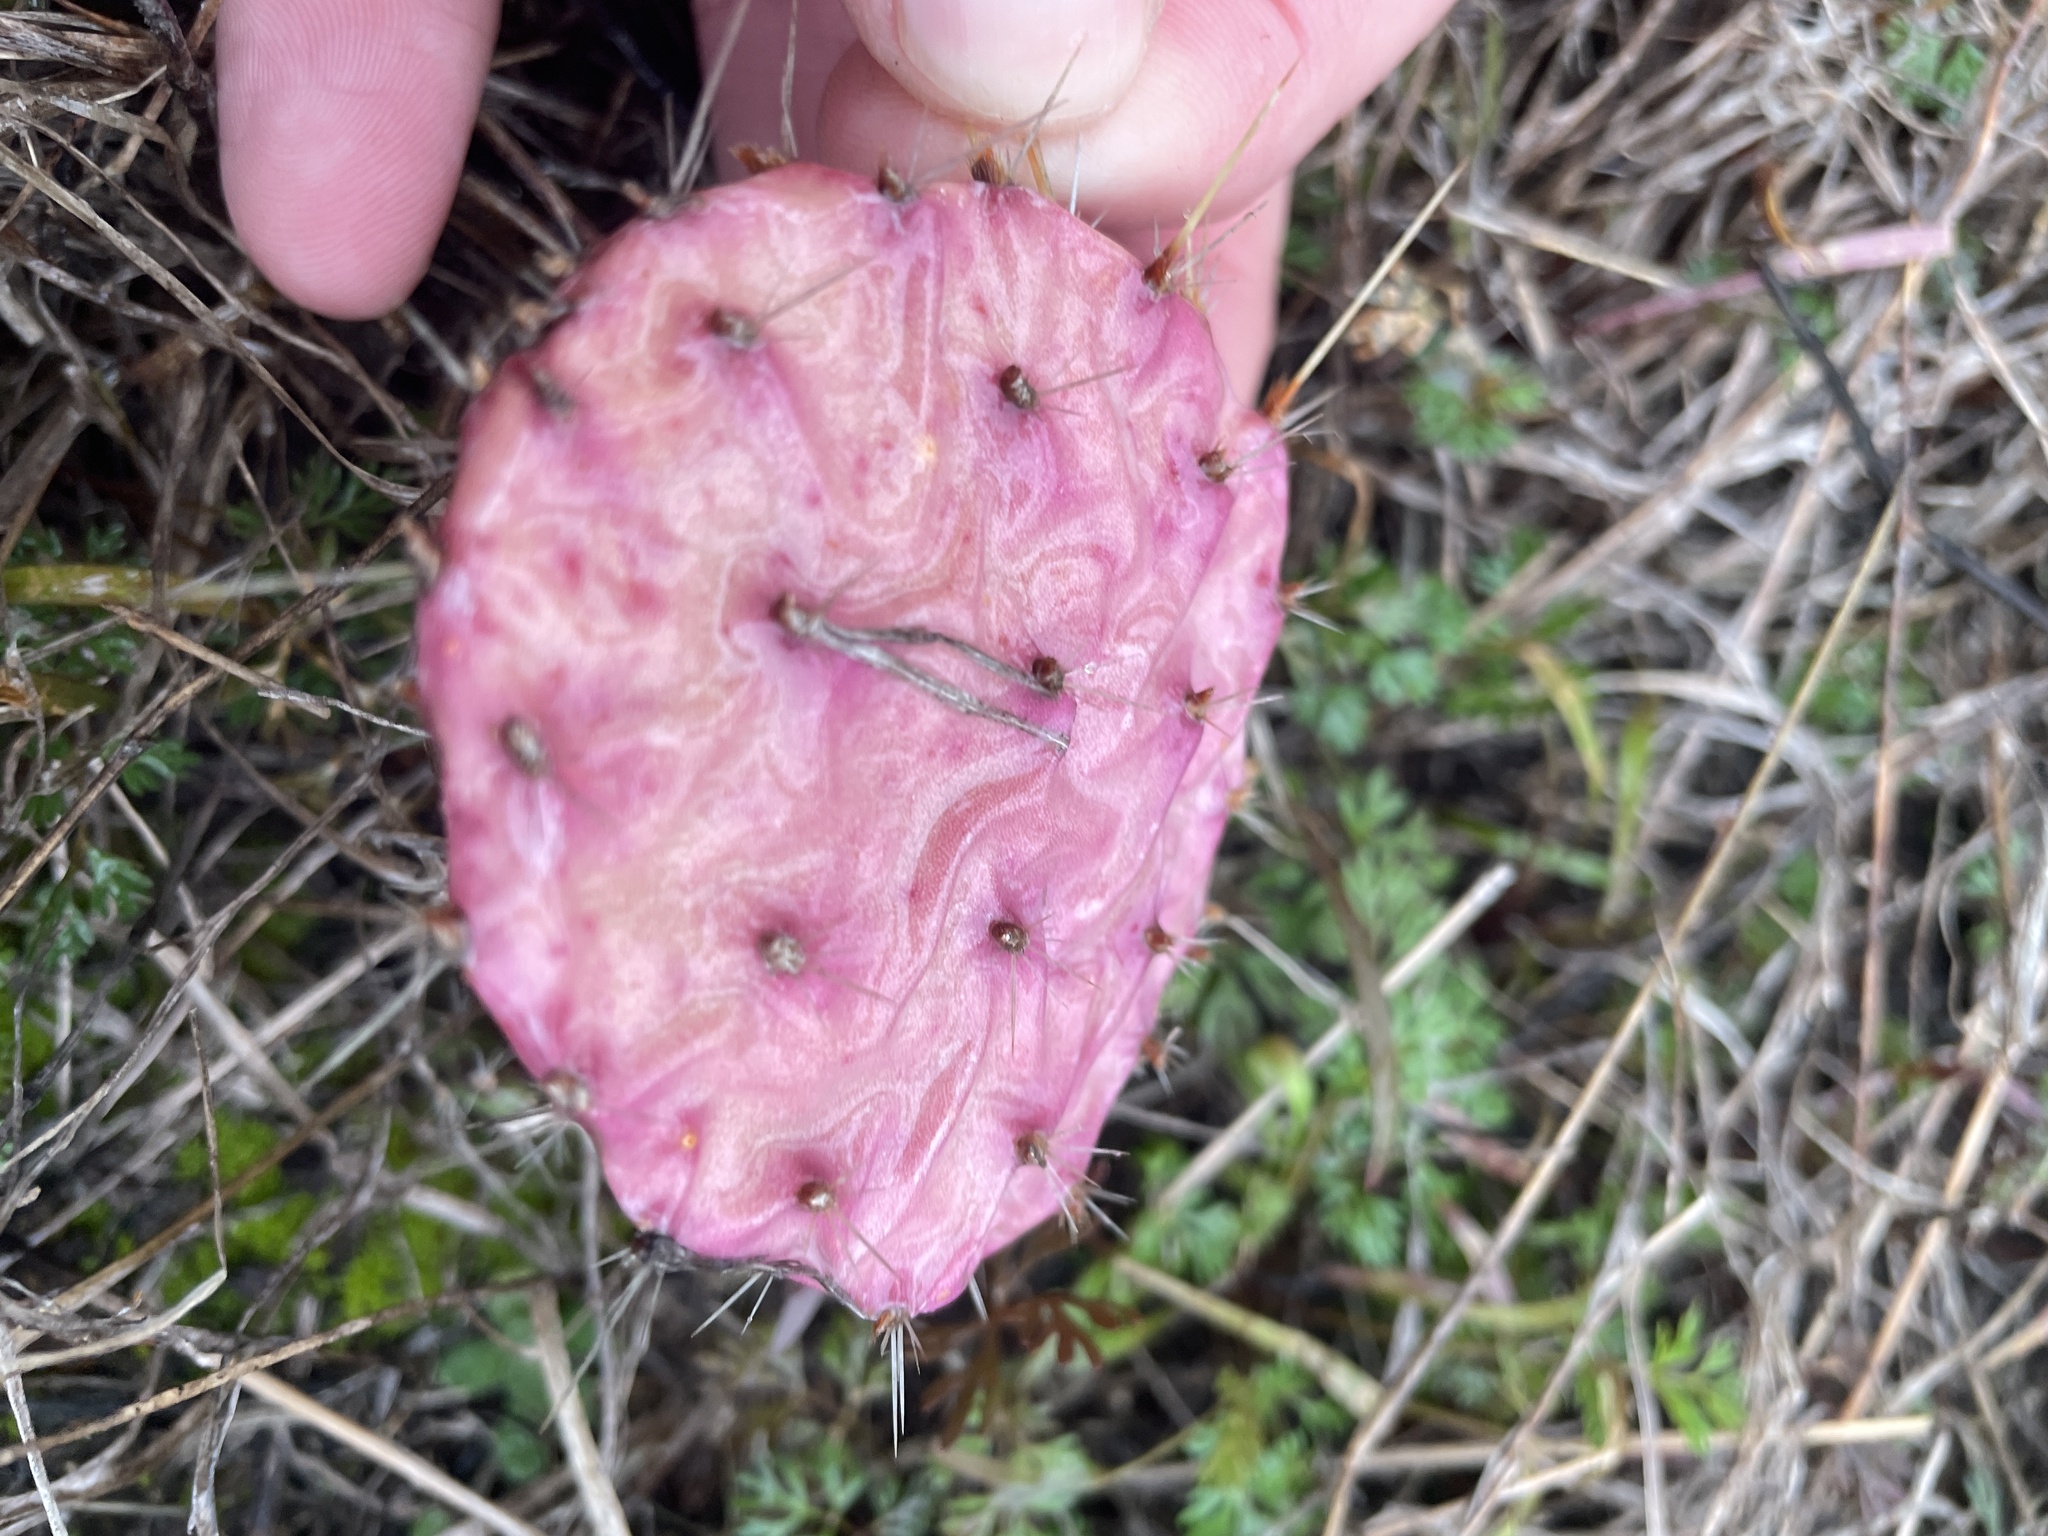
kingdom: Plantae
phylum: Tracheophyta
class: Magnoliopsida
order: Caryophyllales
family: Cactaceae
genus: Opuntia
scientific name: Opuntia phaeacantha
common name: New mexico prickly-pear
